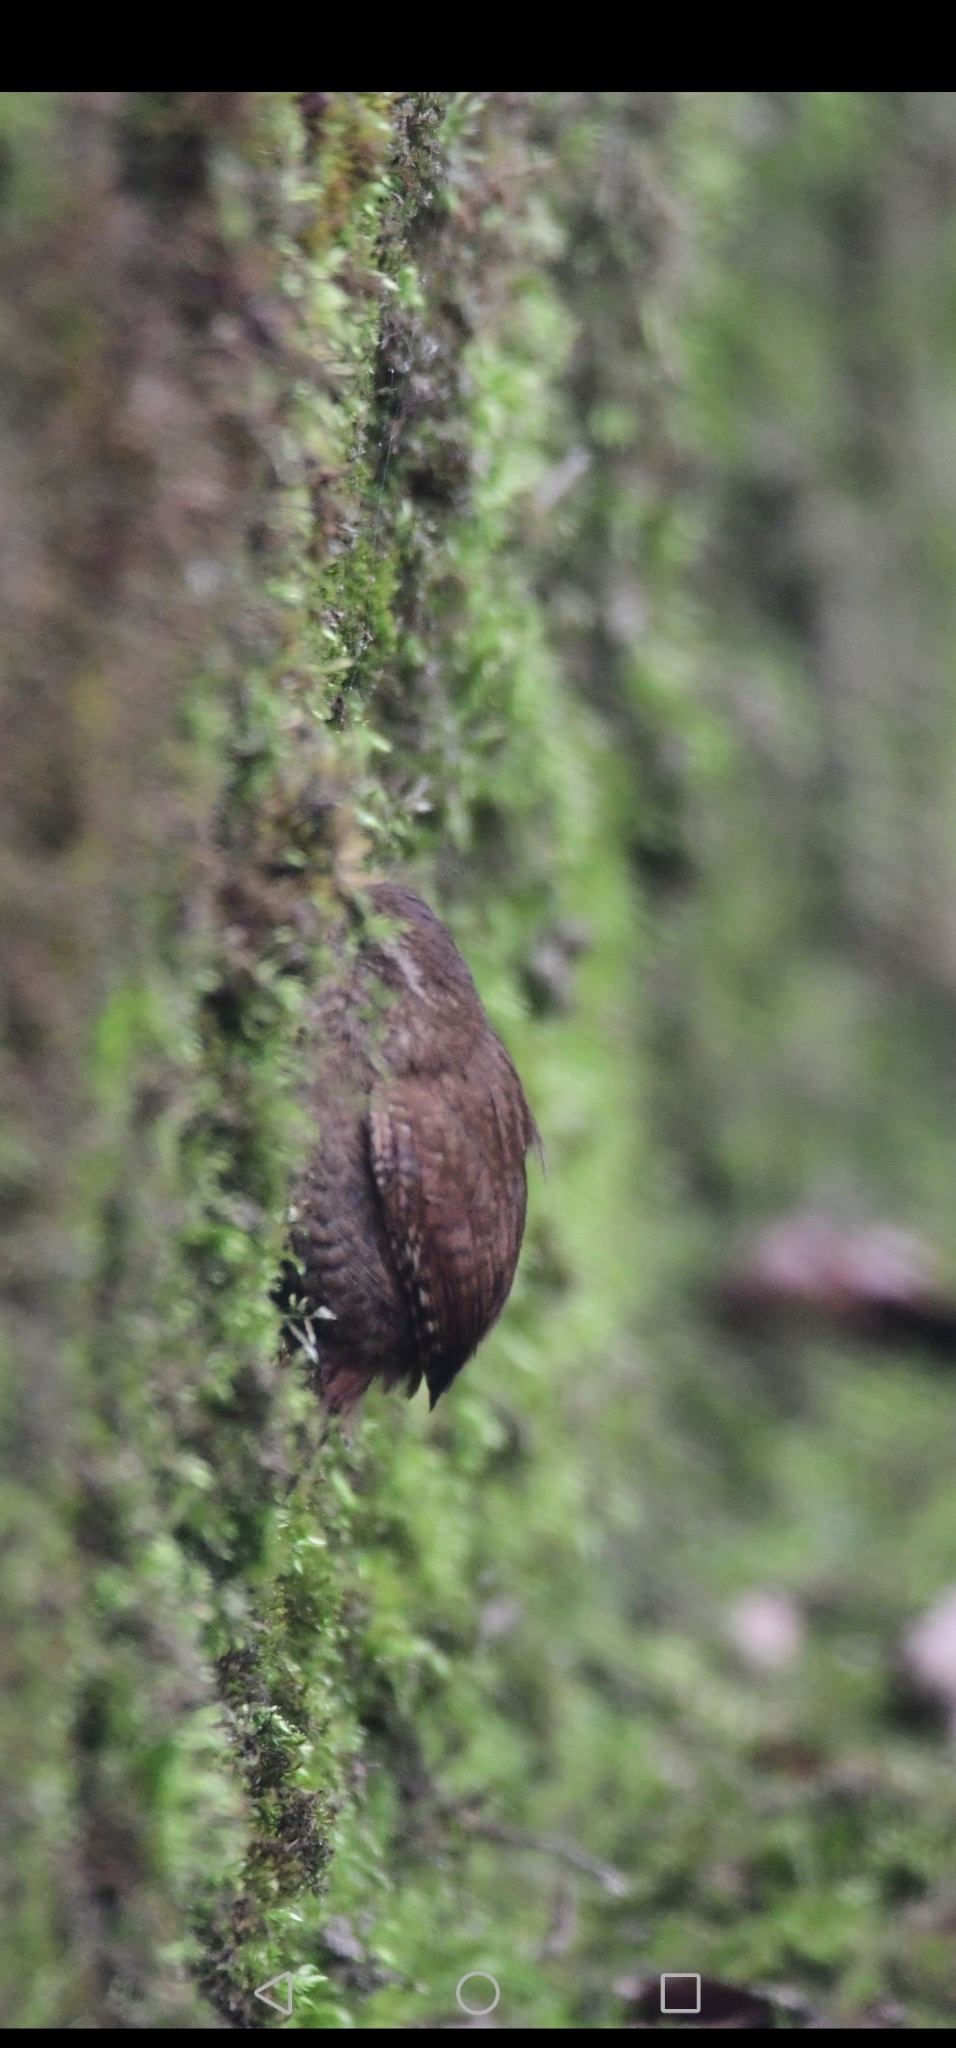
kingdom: Animalia
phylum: Chordata
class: Aves
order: Passeriformes
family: Troglodytidae
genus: Troglodytes
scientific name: Troglodytes troglodytes
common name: Eurasian wren
